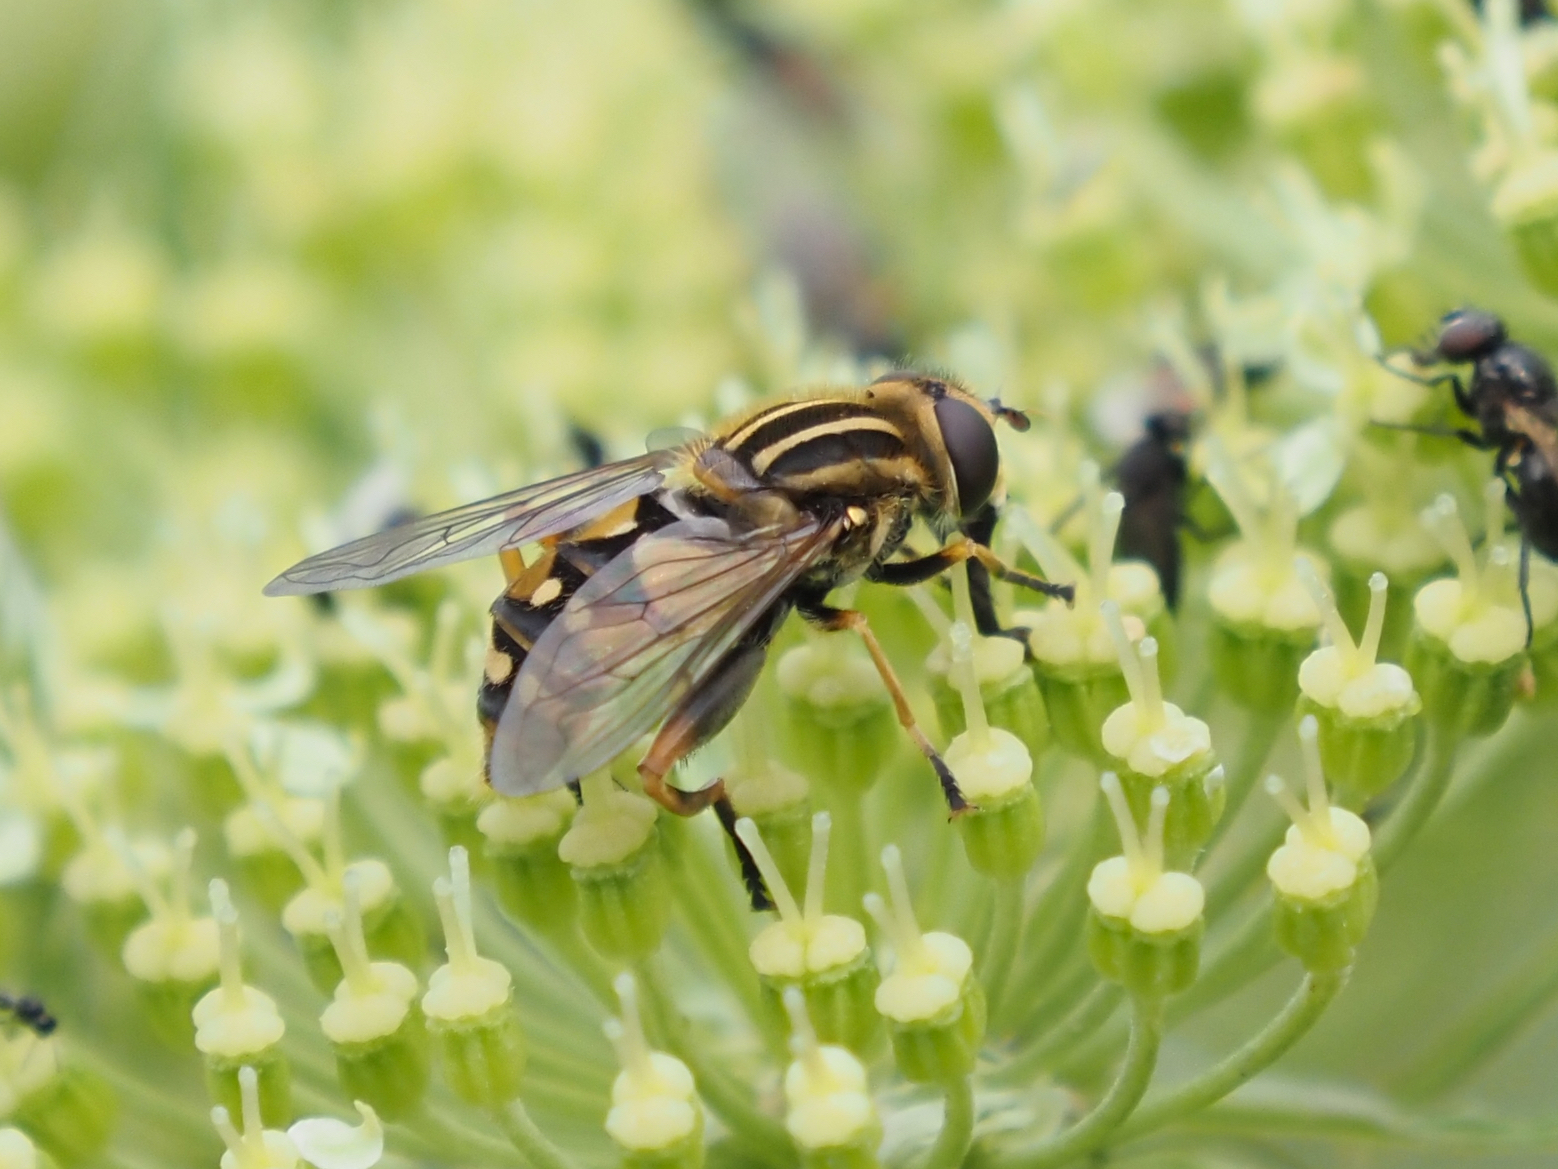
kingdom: Animalia
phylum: Arthropoda
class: Insecta
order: Diptera
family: Syrphidae
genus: Helophilus
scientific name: Helophilus intentus
